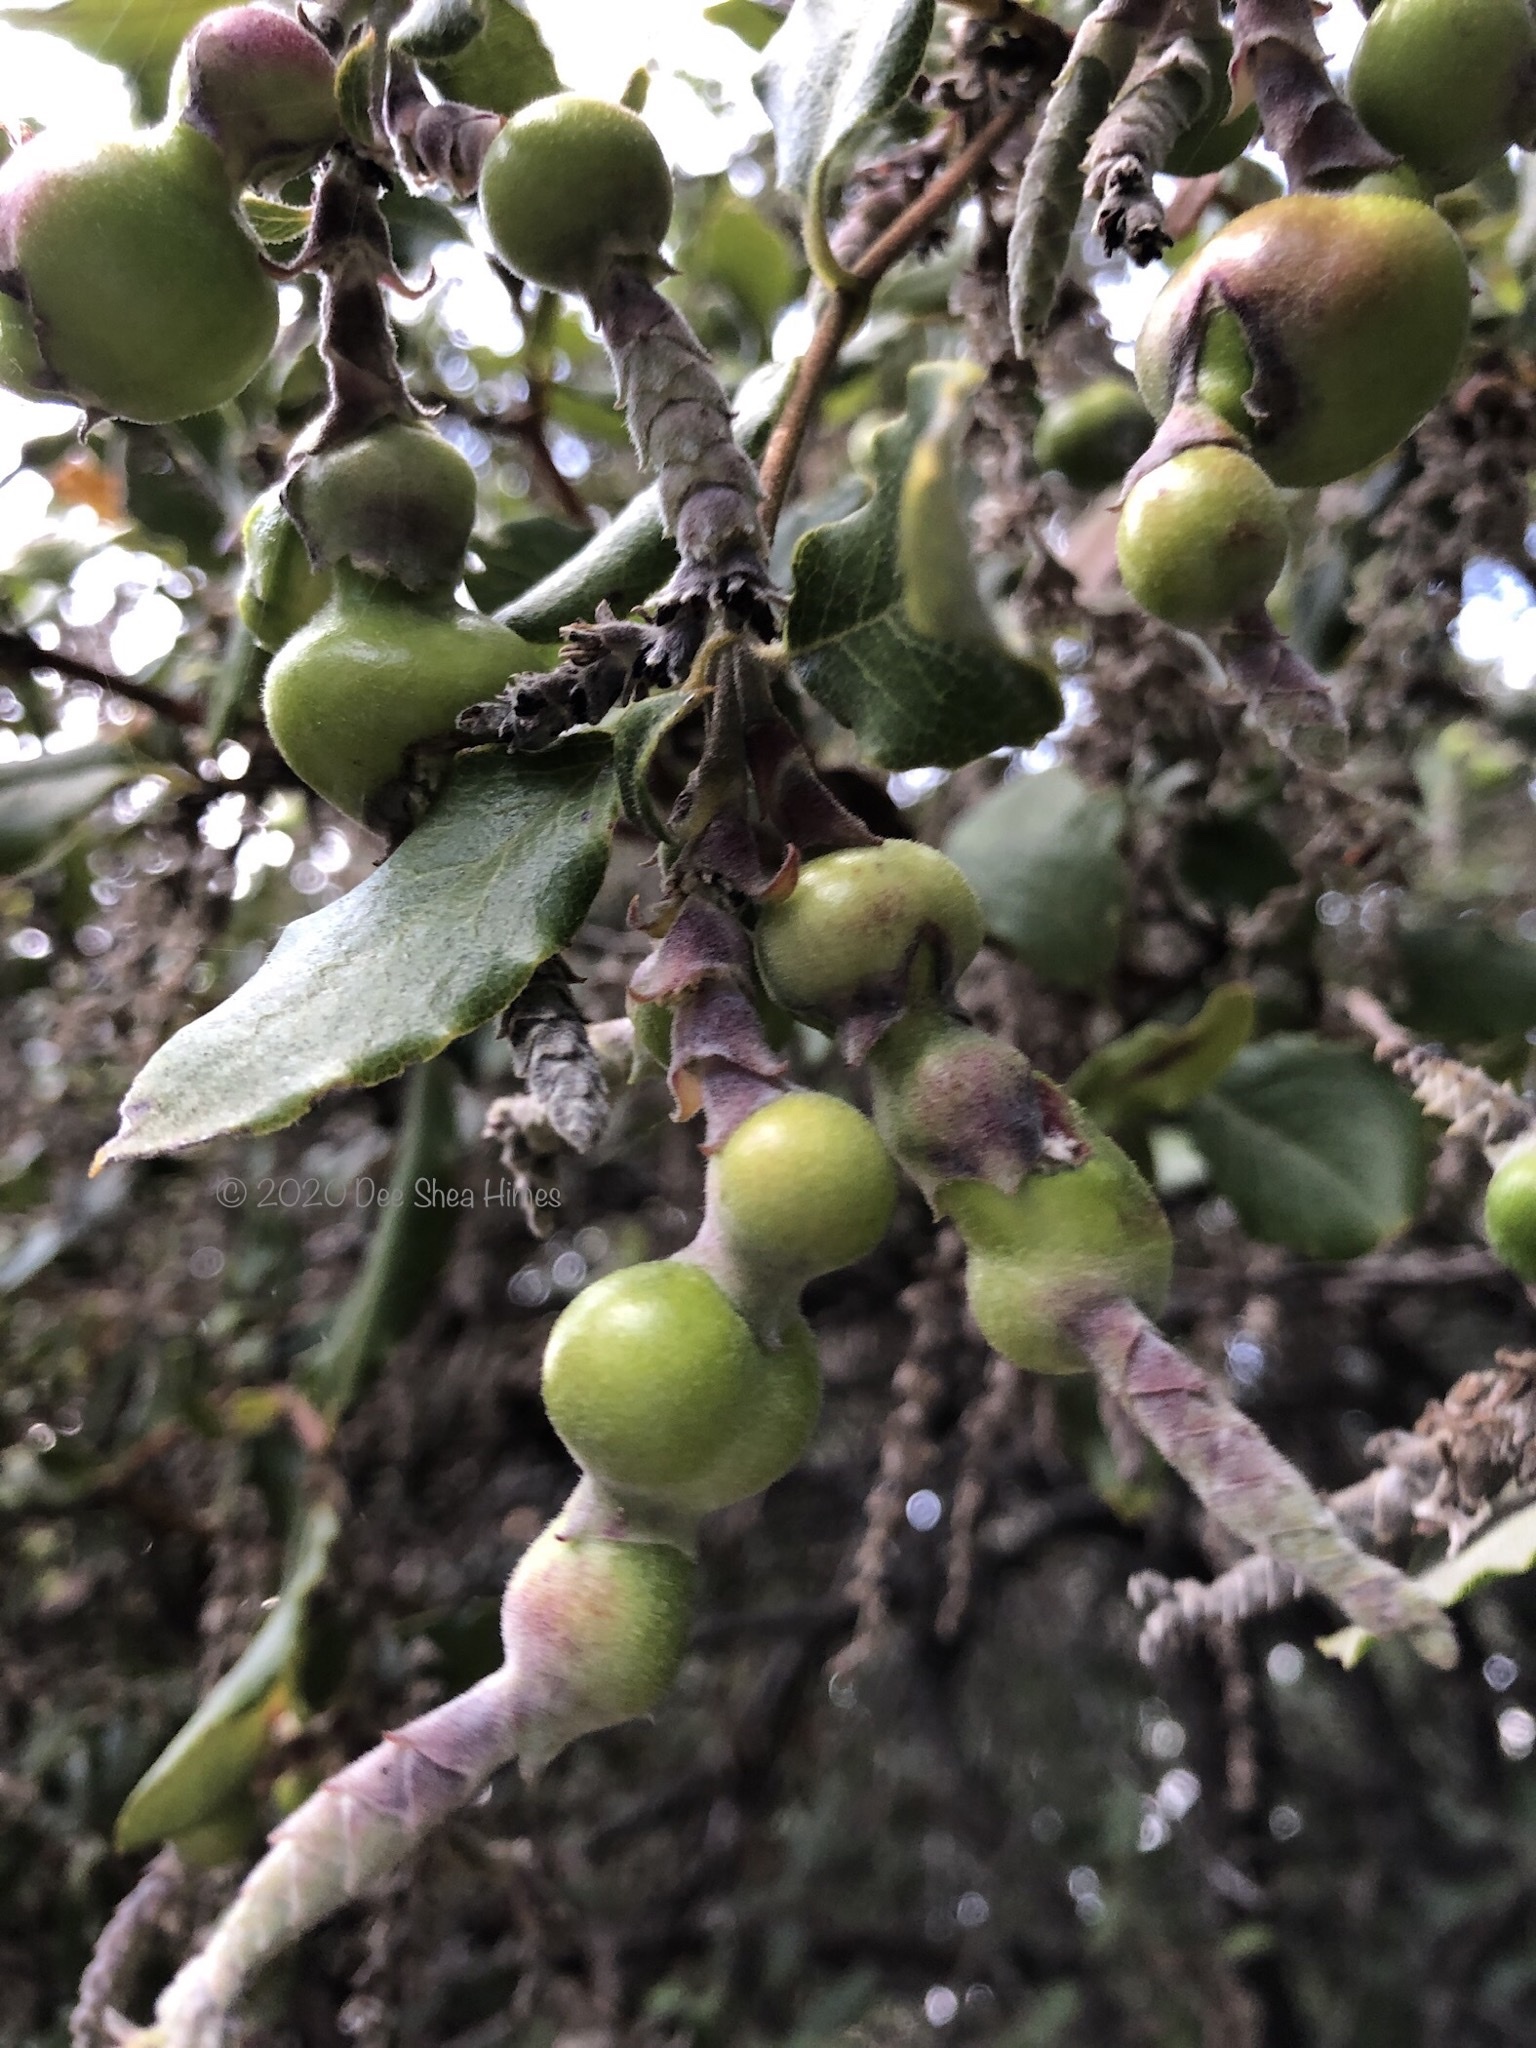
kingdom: Animalia
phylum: Arthropoda
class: Insecta
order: Diptera
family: Cecidomyiidae
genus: Asphondylia
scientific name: Asphondylia garryae
